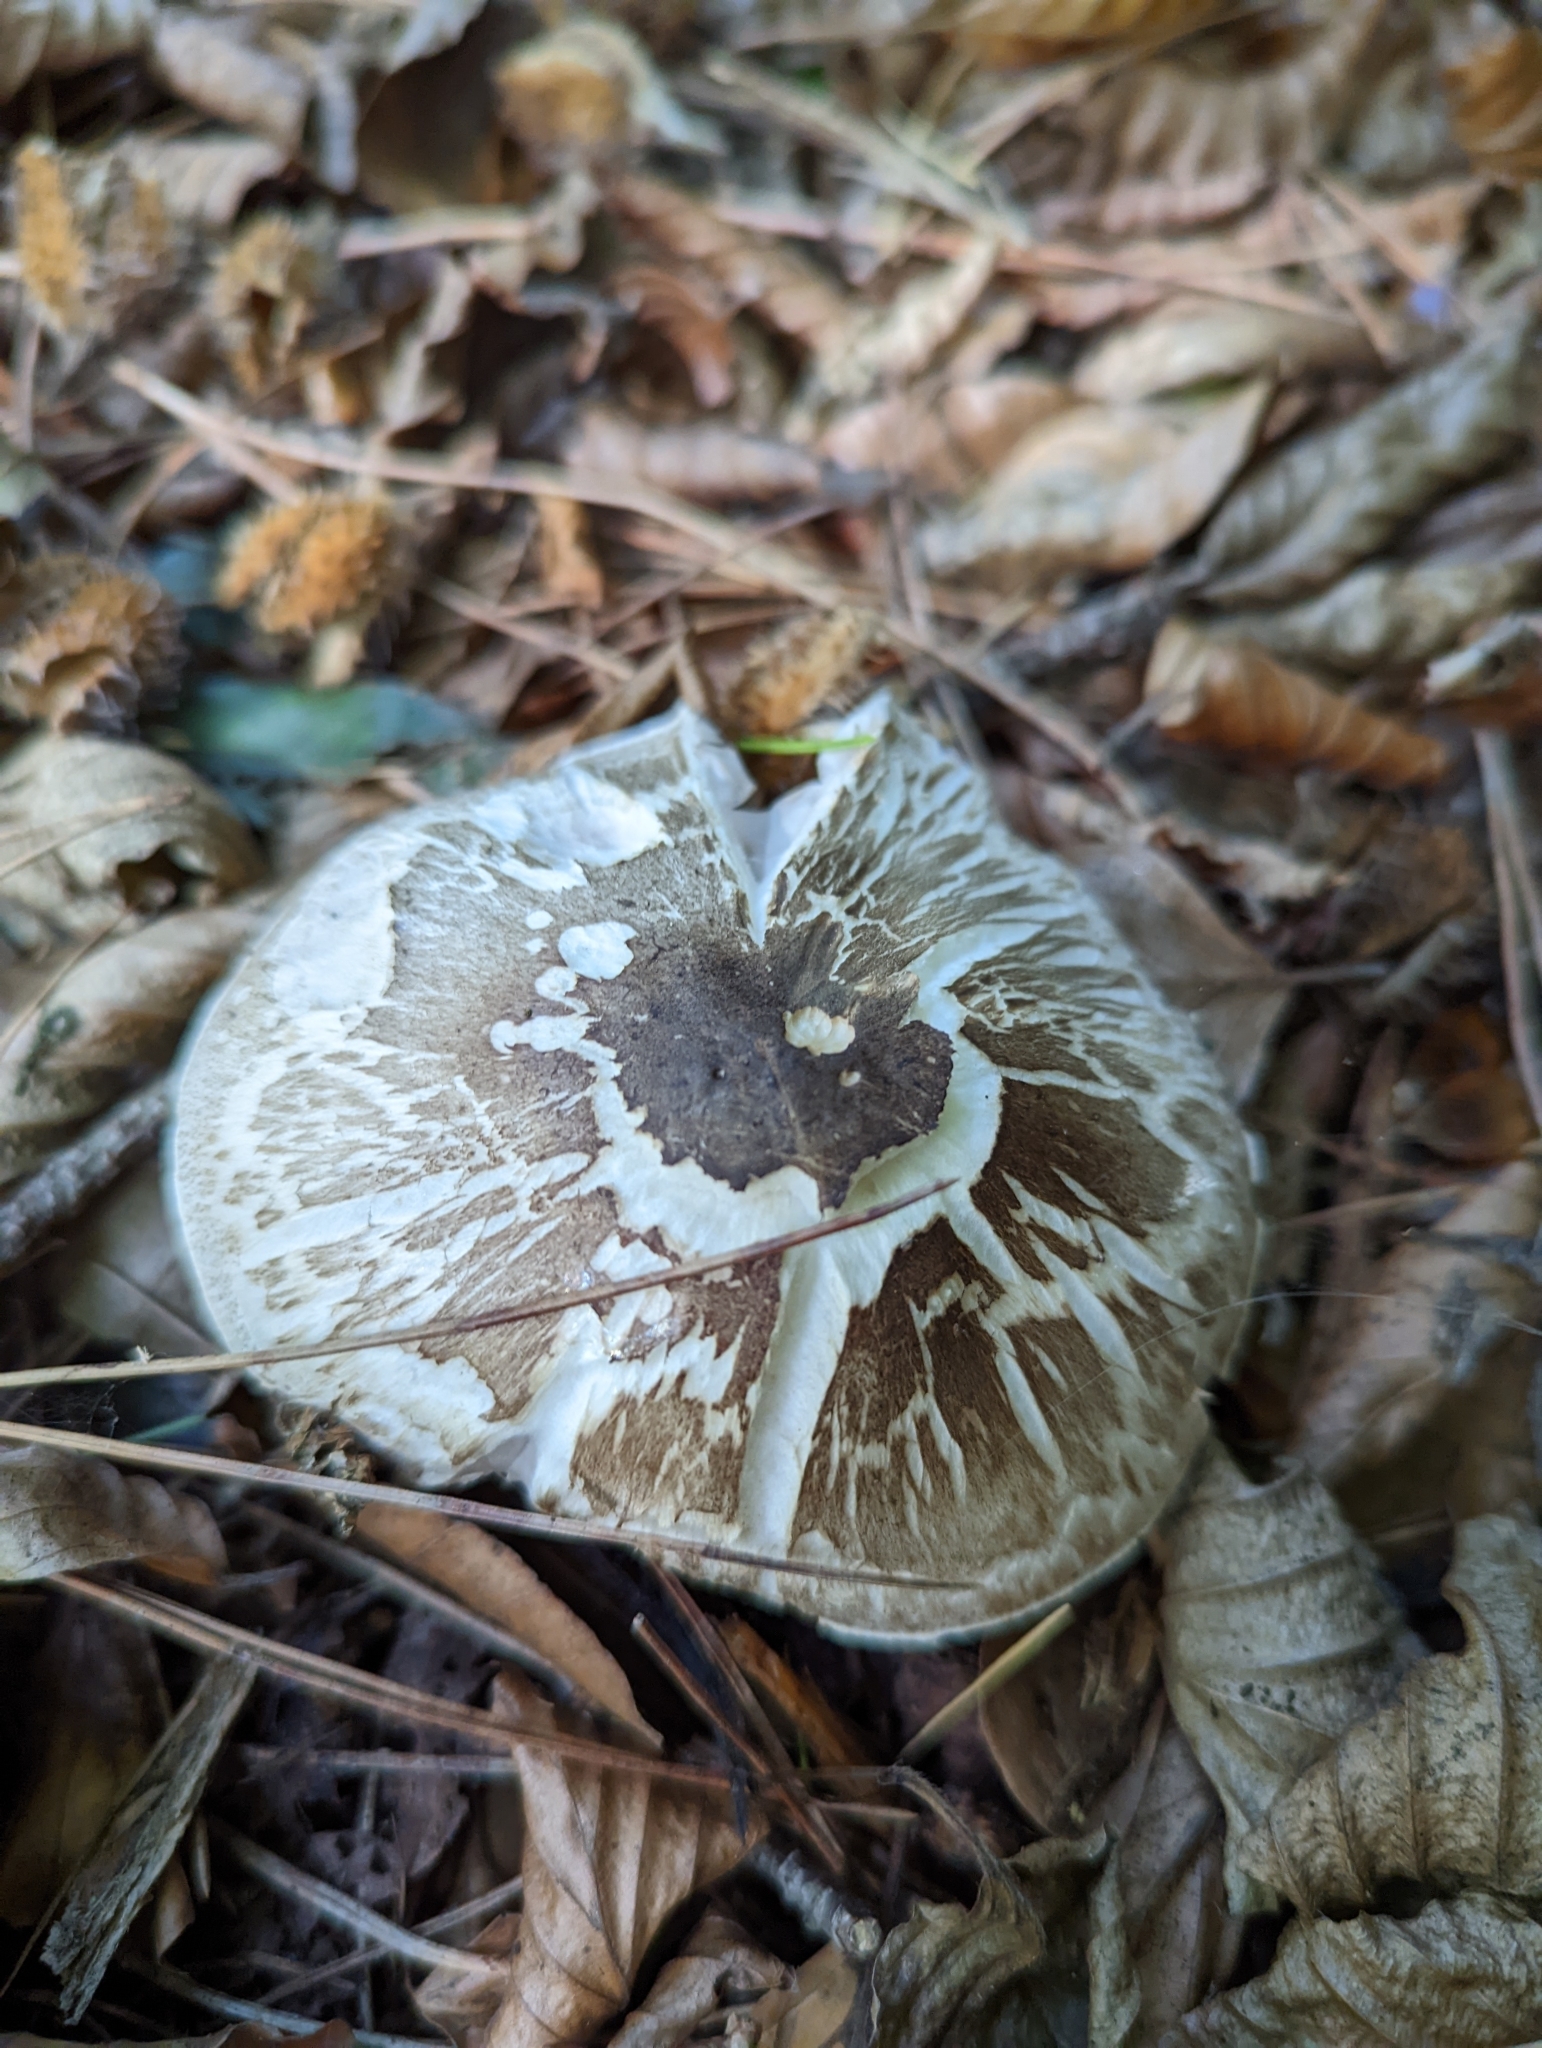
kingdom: Fungi
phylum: Basidiomycota
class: Agaricomycetes
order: Agaricales
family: Agaricaceae
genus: Agaricus
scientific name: Agaricus moelleri
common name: Inky mushroom
